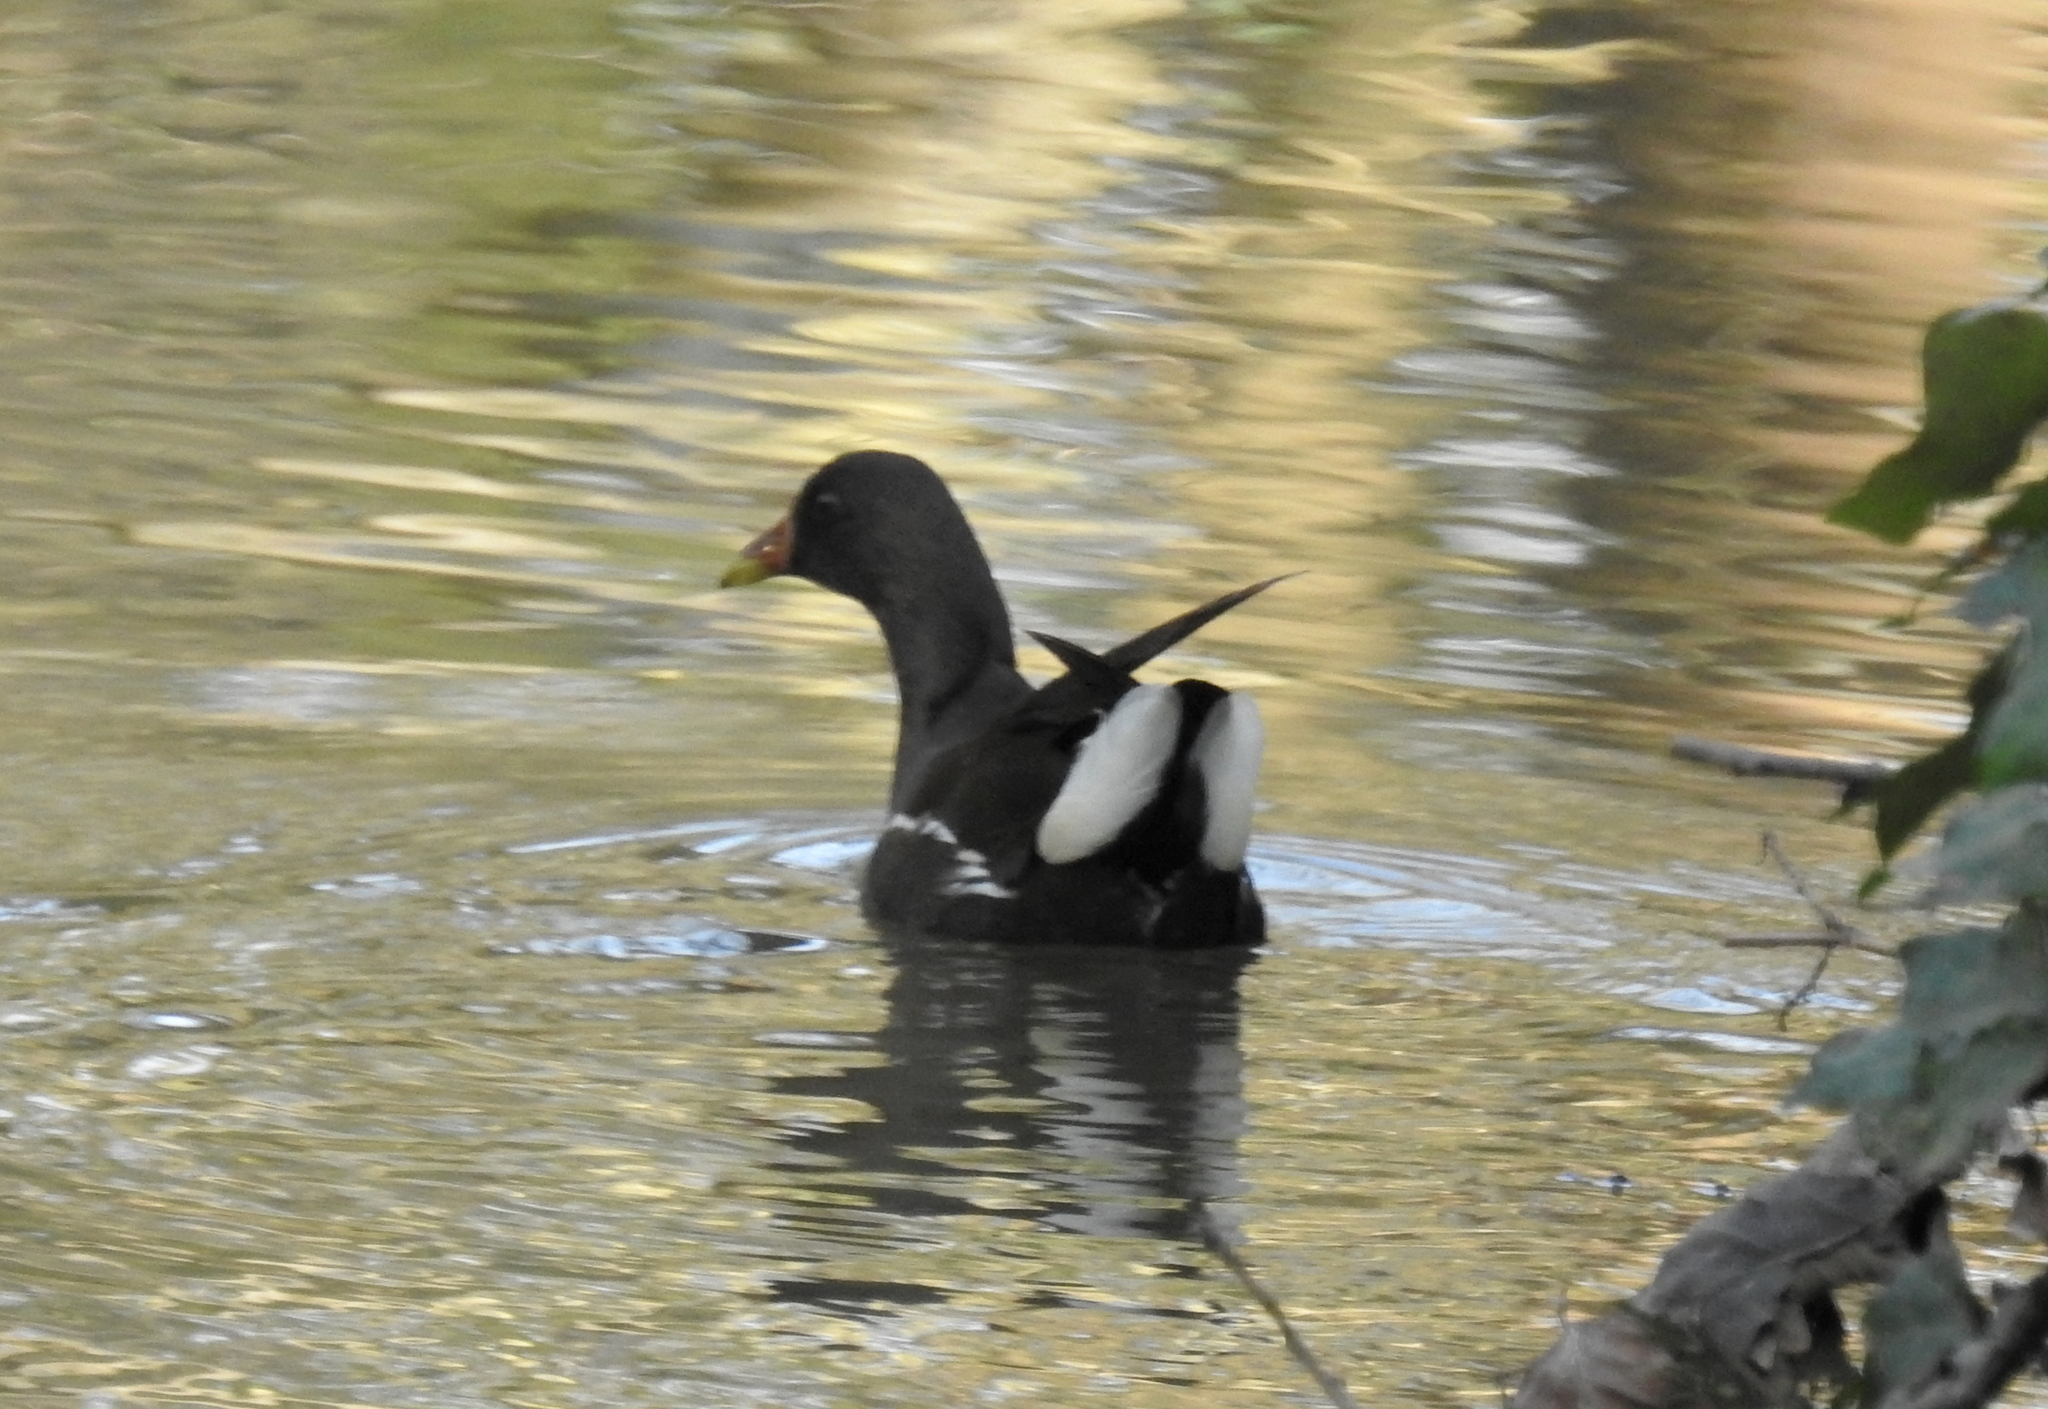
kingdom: Animalia
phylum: Chordata
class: Aves
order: Gruiformes
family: Rallidae
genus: Gallinula
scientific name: Gallinula chloropus
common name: Common moorhen
